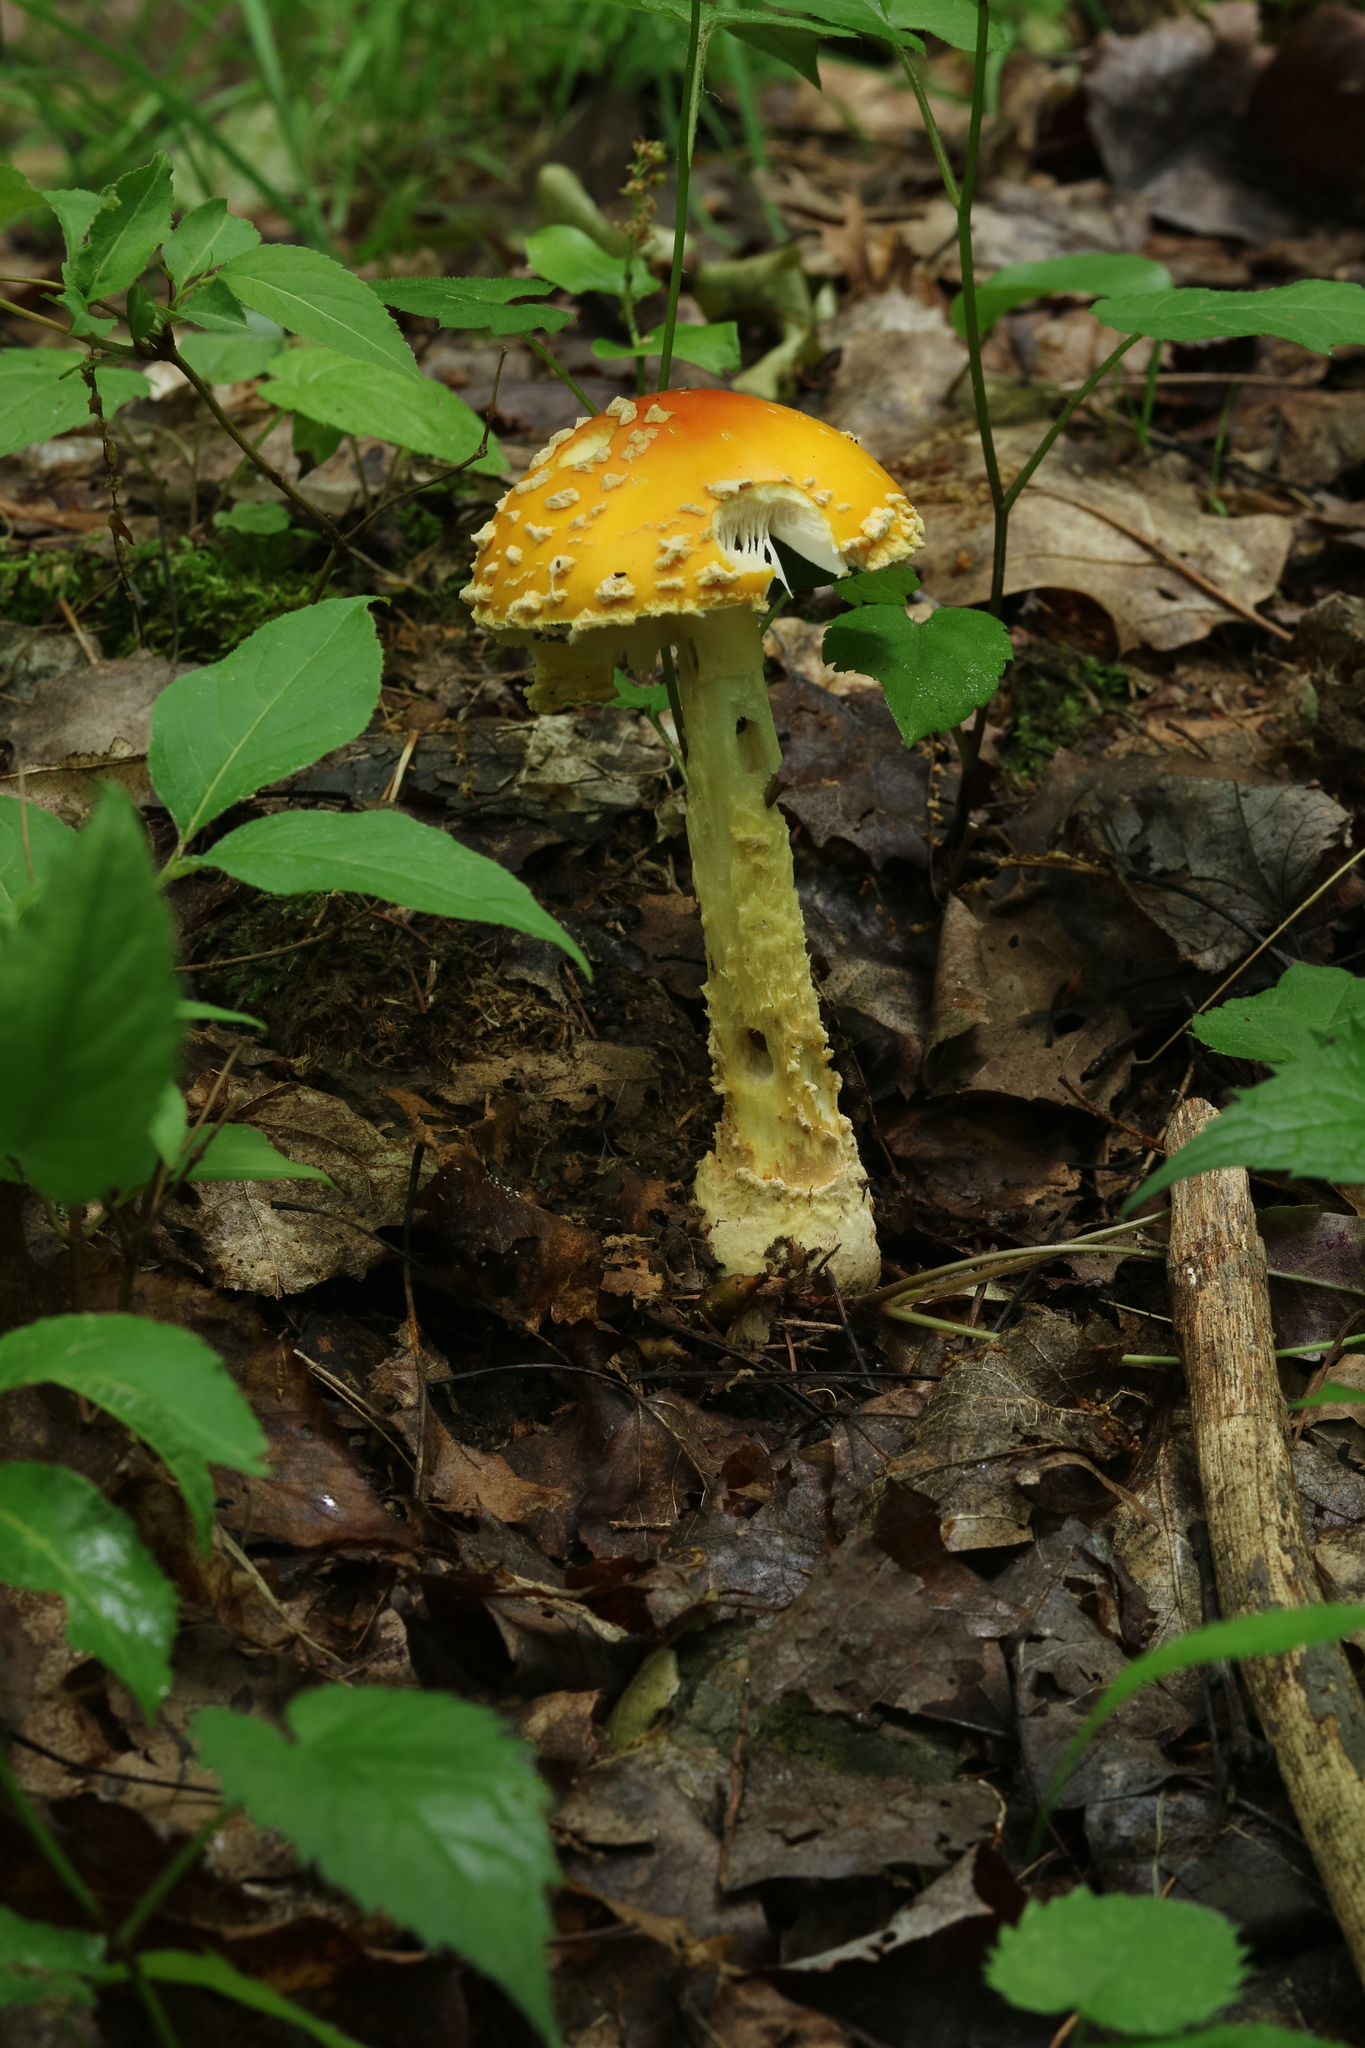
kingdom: Fungi
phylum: Basidiomycota
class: Agaricomycetes
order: Agaricales
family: Amanitaceae
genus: Amanita
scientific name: Amanita muscaria
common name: Fly agaric
